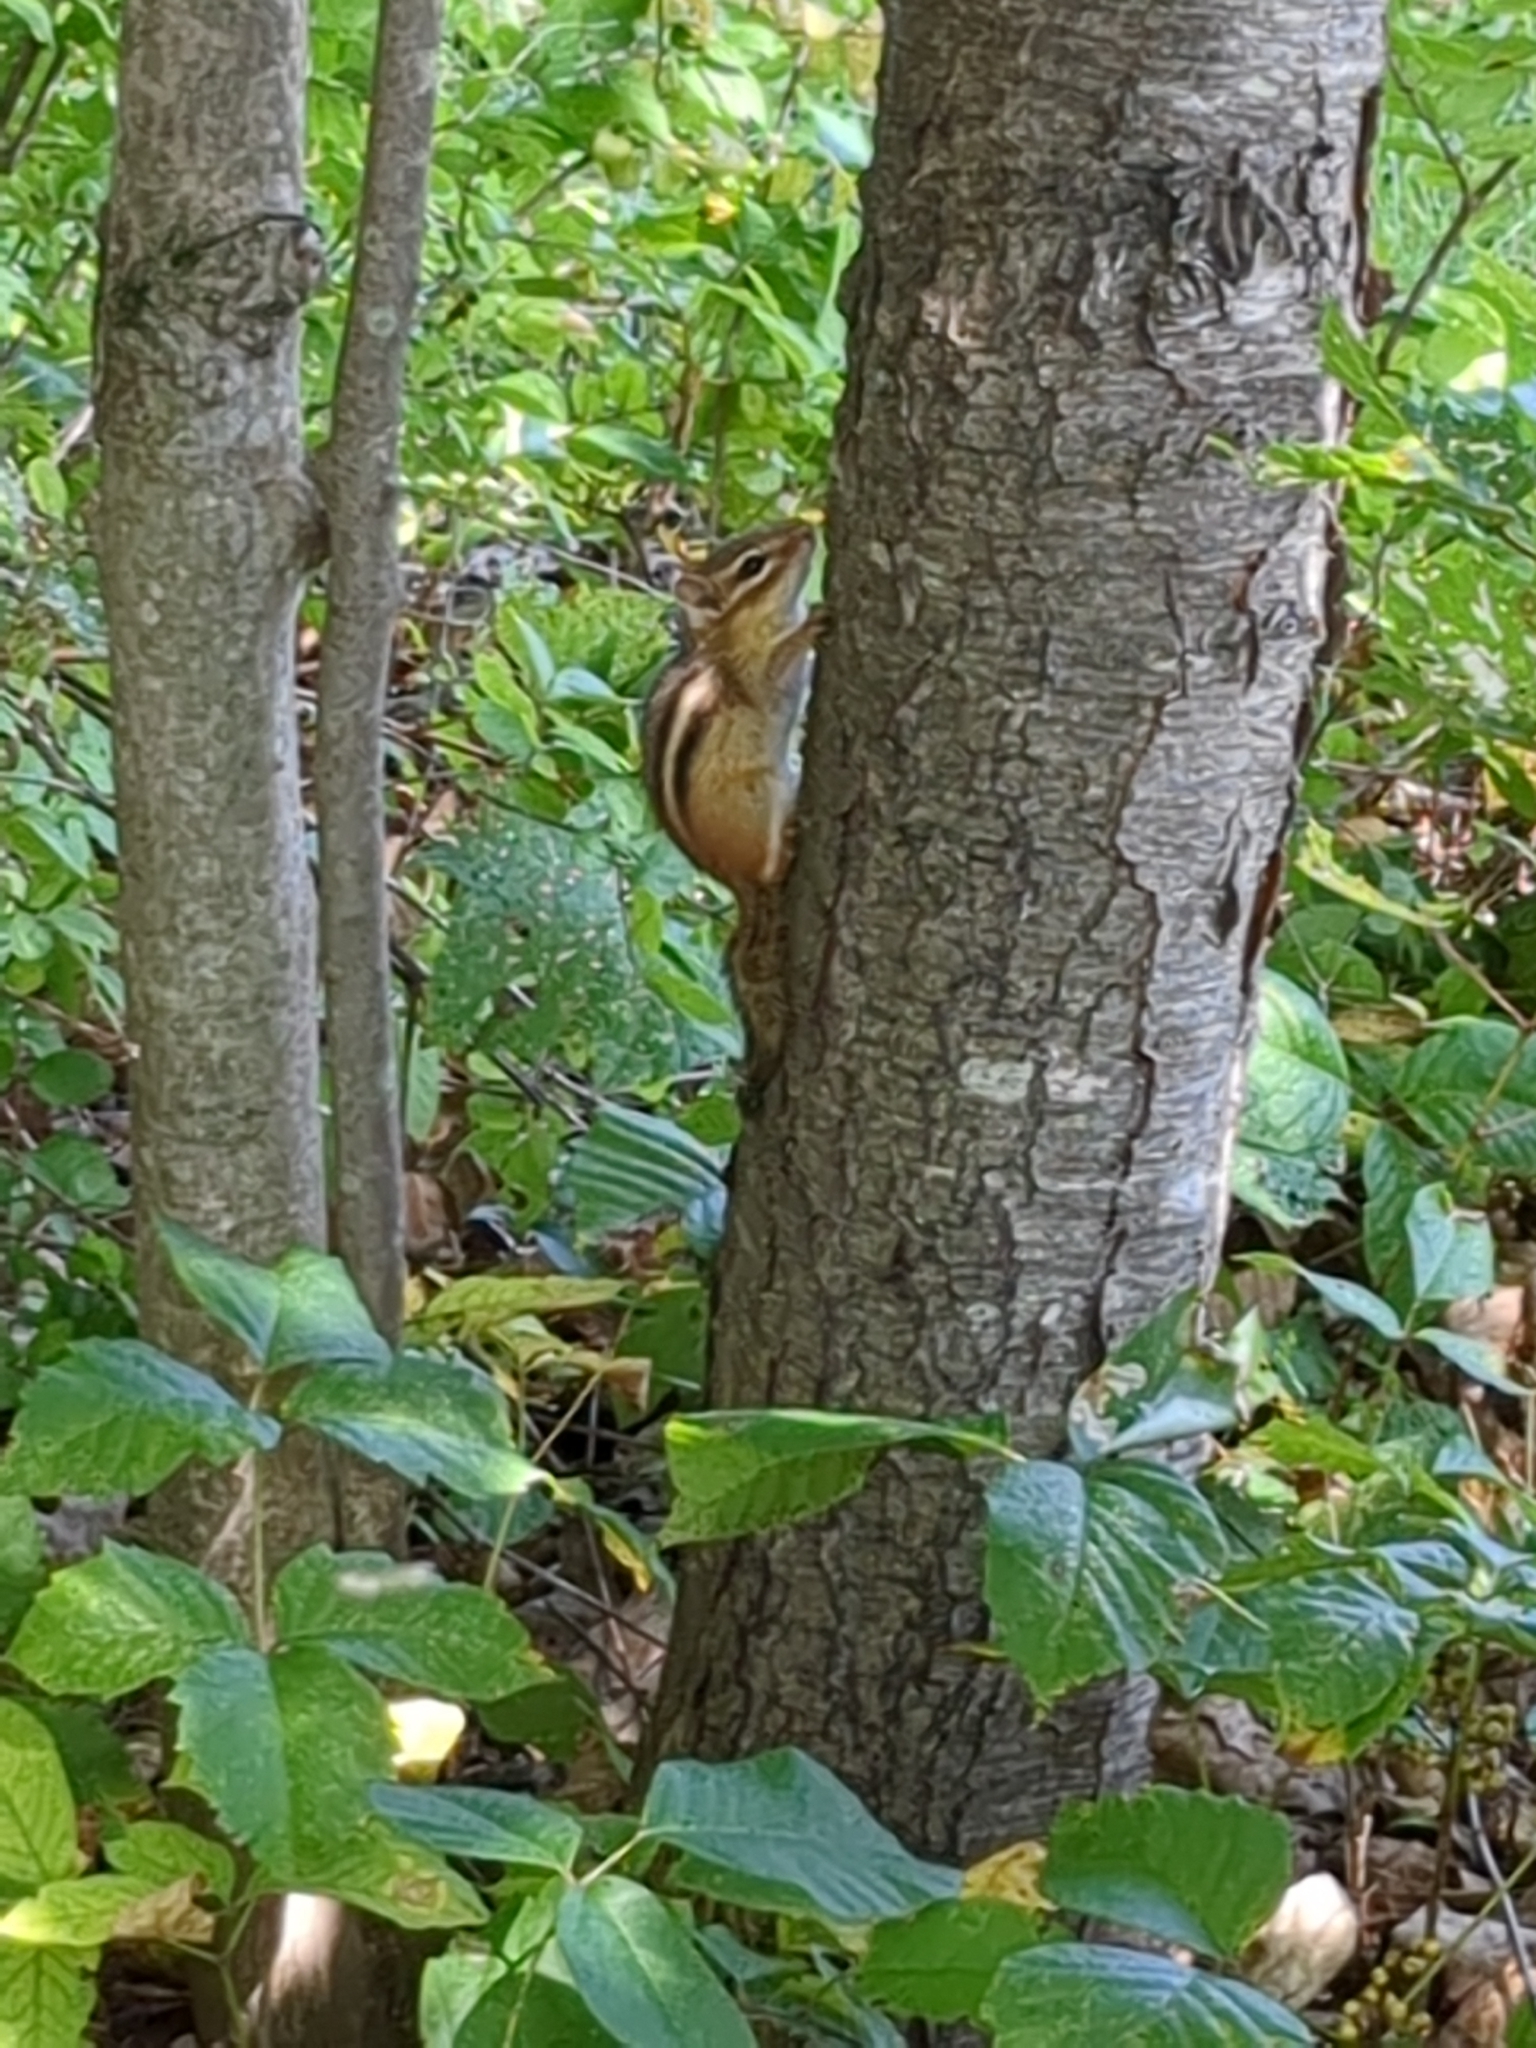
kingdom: Animalia
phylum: Chordata
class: Mammalia
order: Rodentia
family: Sciuridae
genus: Tamias
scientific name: Tamias striatus
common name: Eastern chipmunk
